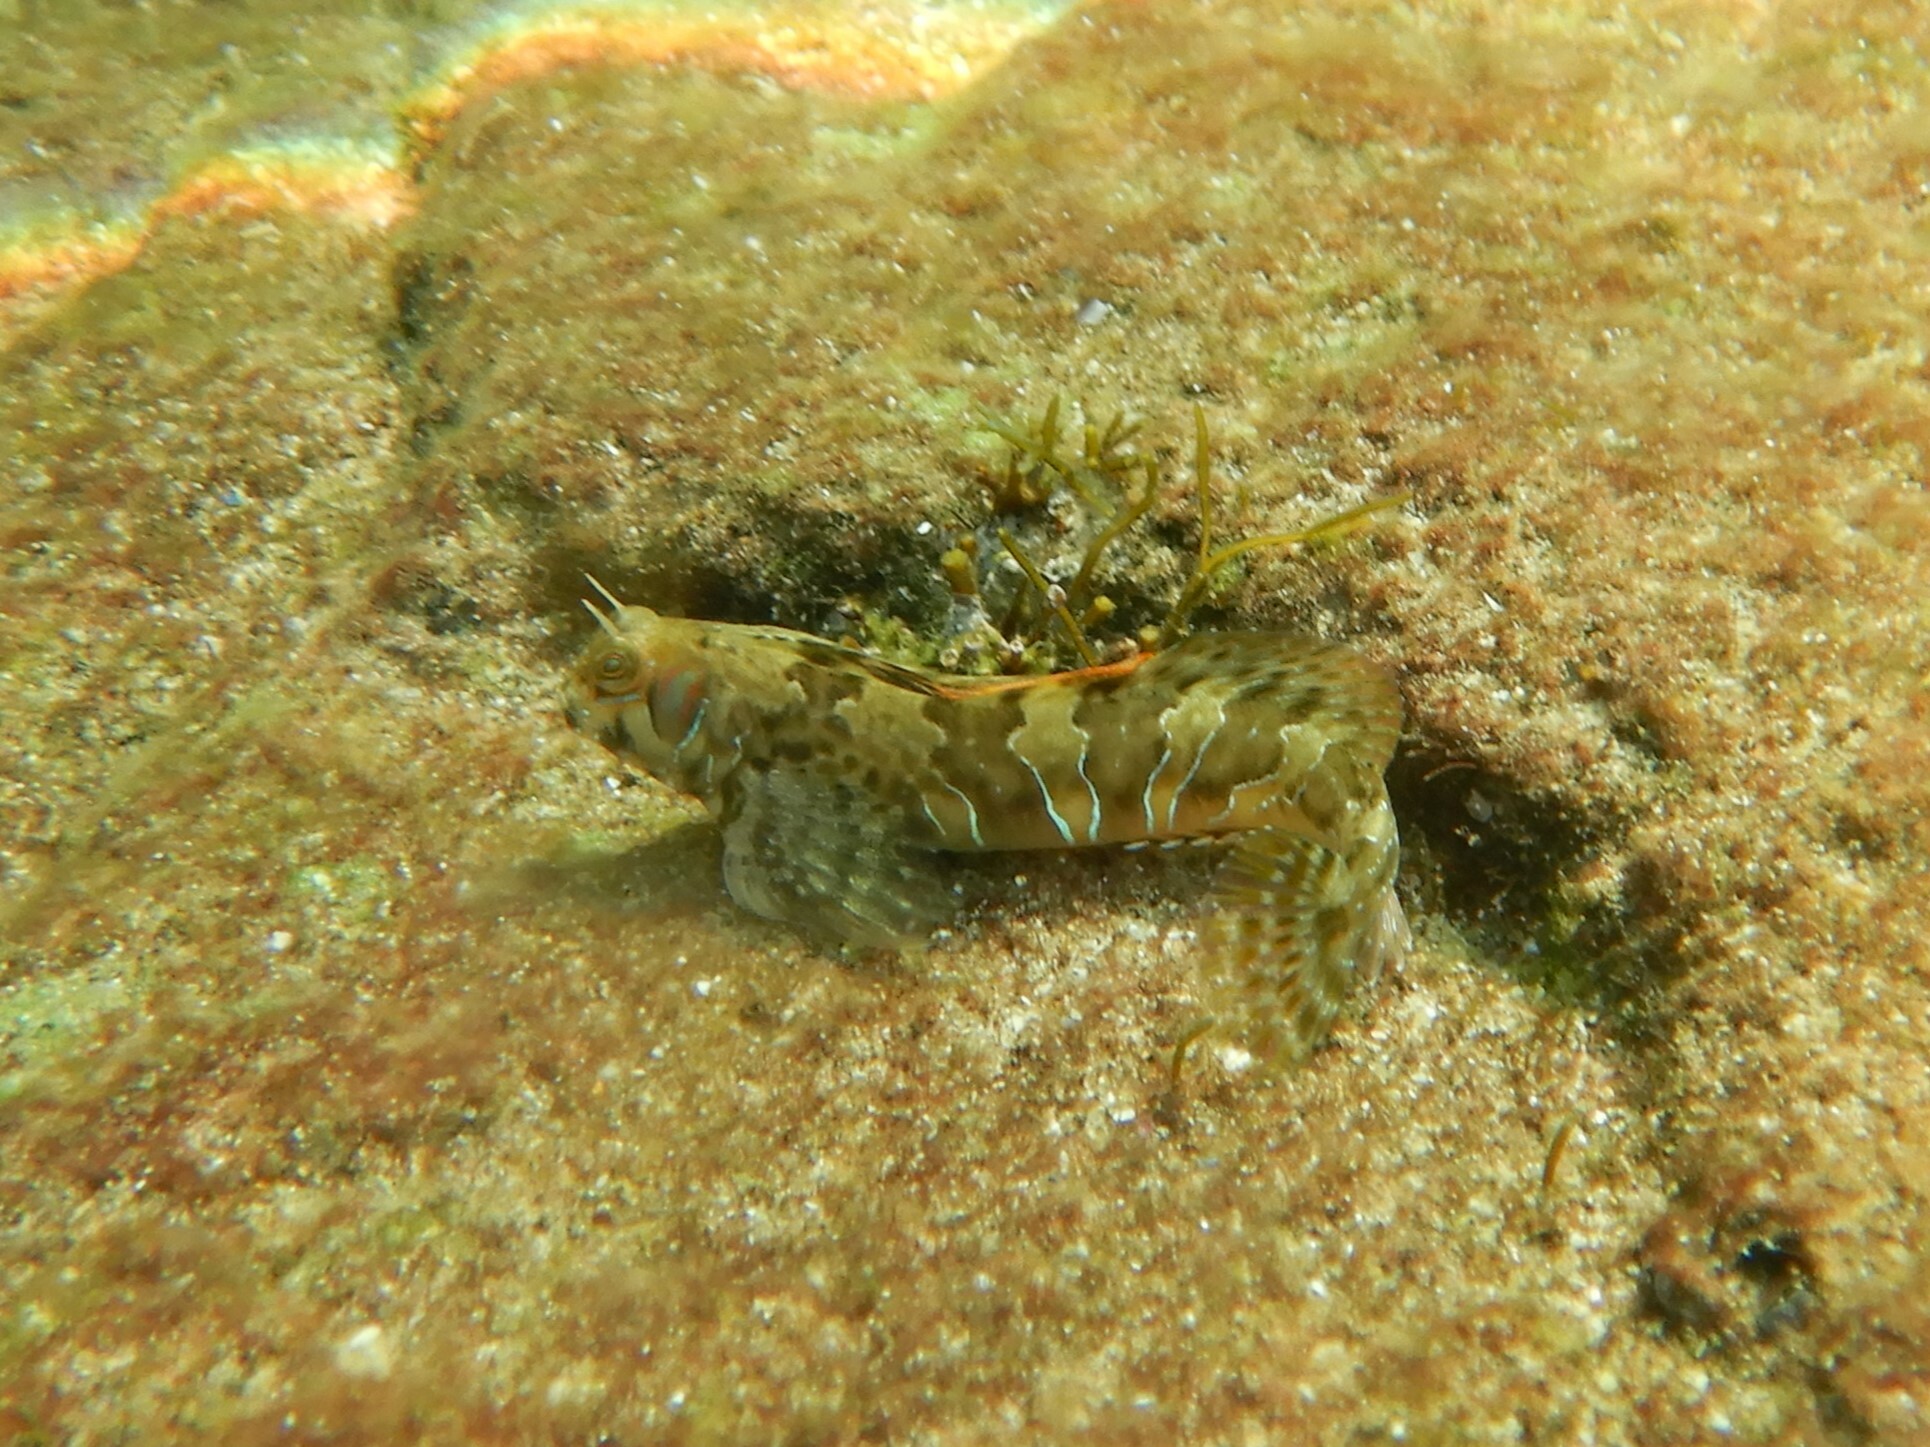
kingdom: Animalia
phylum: Chordata
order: Perciformes
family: Blenniidae
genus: Aidablennius
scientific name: Aidablennius sphynx
